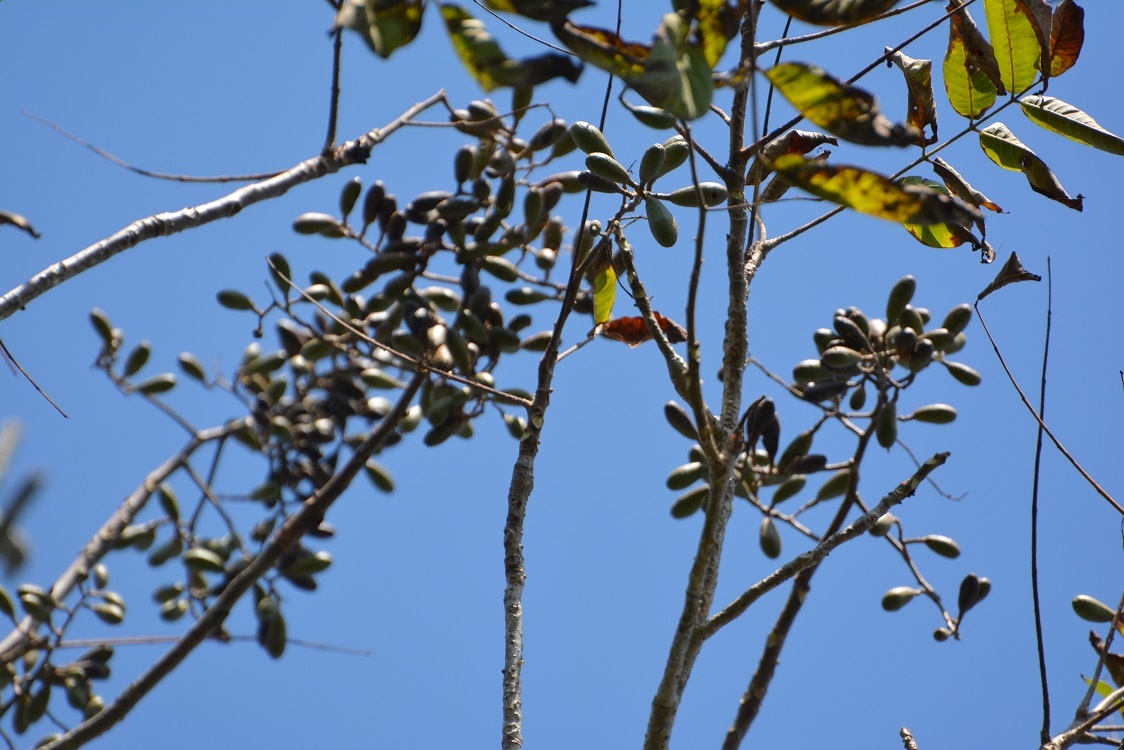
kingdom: Plantae
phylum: Tracheophyta
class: Magnoliopsida
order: Sapindales
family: Meliaceae
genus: Cedrela
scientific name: Cedrela odorata
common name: Red cedar
